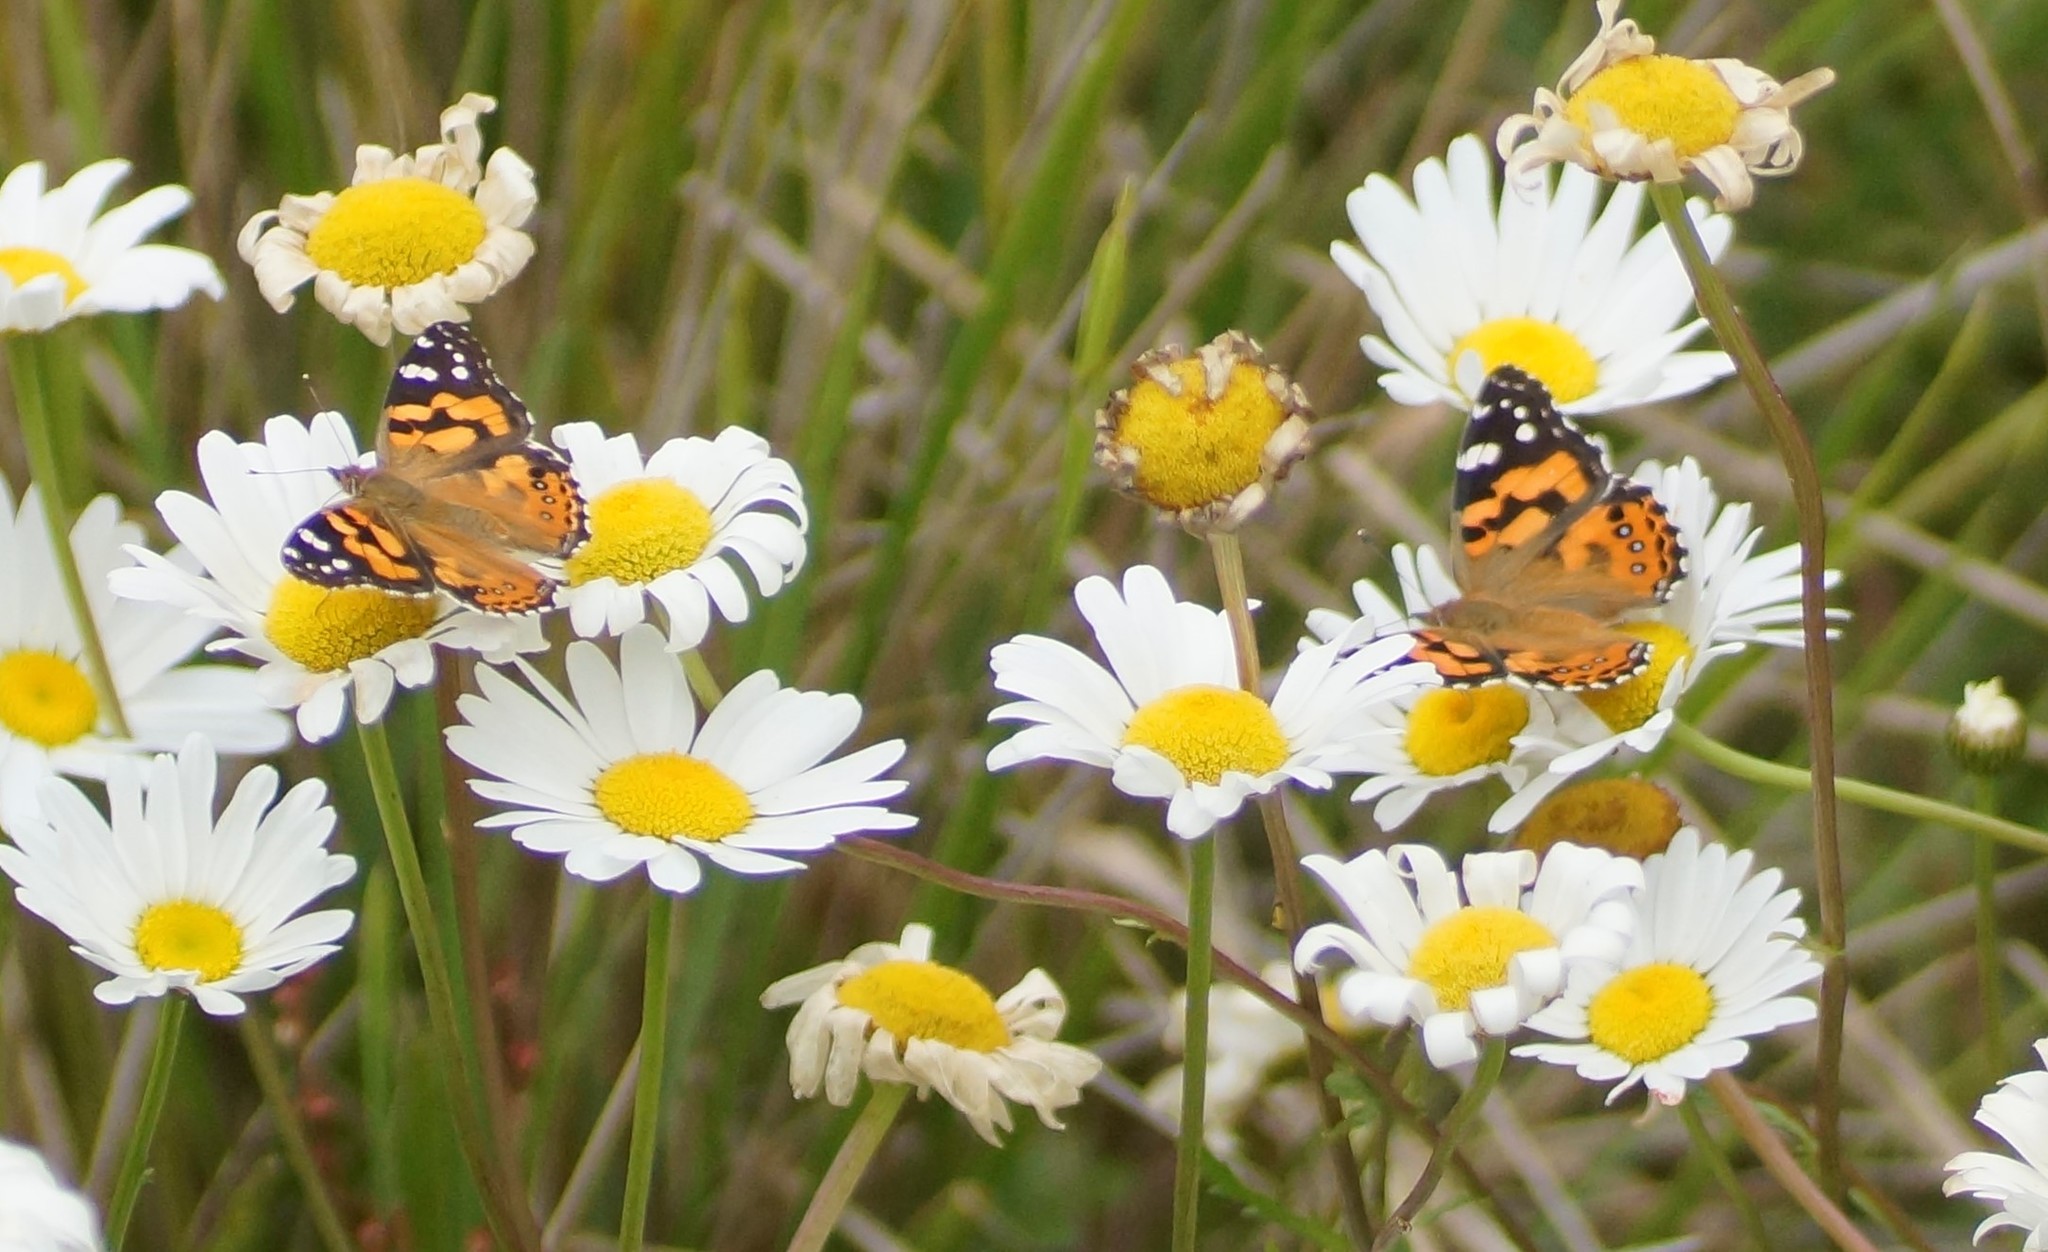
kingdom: Animalia
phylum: Arthropoda
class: Insecta
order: Lepidoptera
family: Nymphalidae
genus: Vanessa
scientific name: Vanessa kershawi
